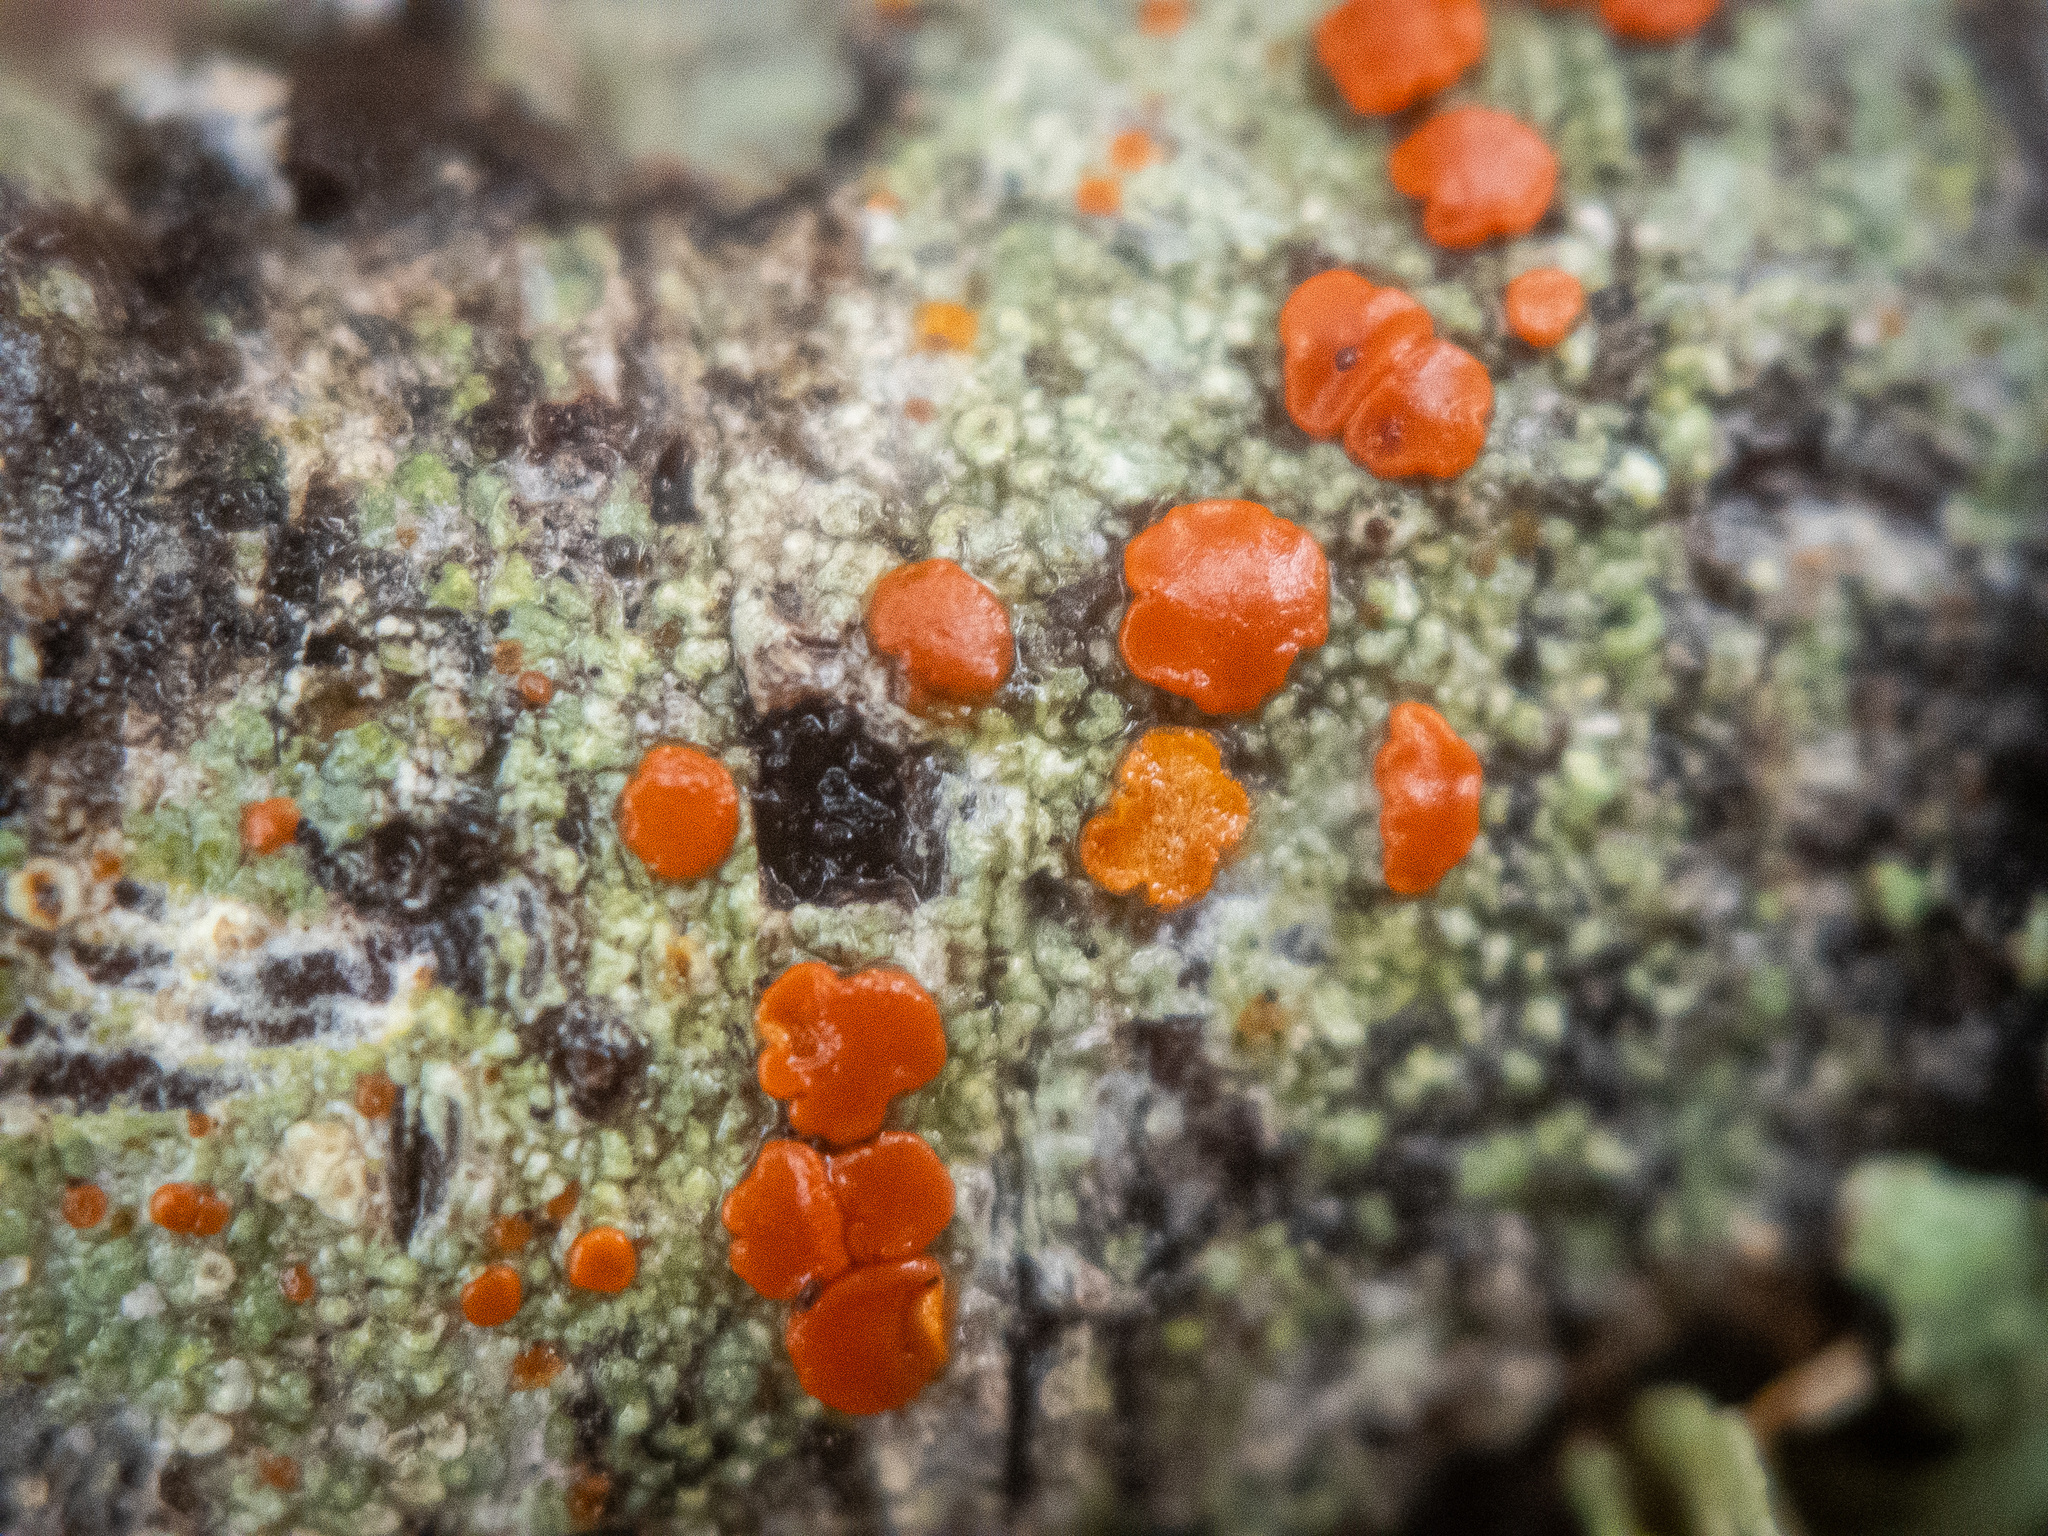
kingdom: Fungi
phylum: Ascomycota
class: Lecanoromycetes
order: Lecanorales
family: Ramboldiaceae
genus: Ramboldia
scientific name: Ramboldia russula
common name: Red heads
